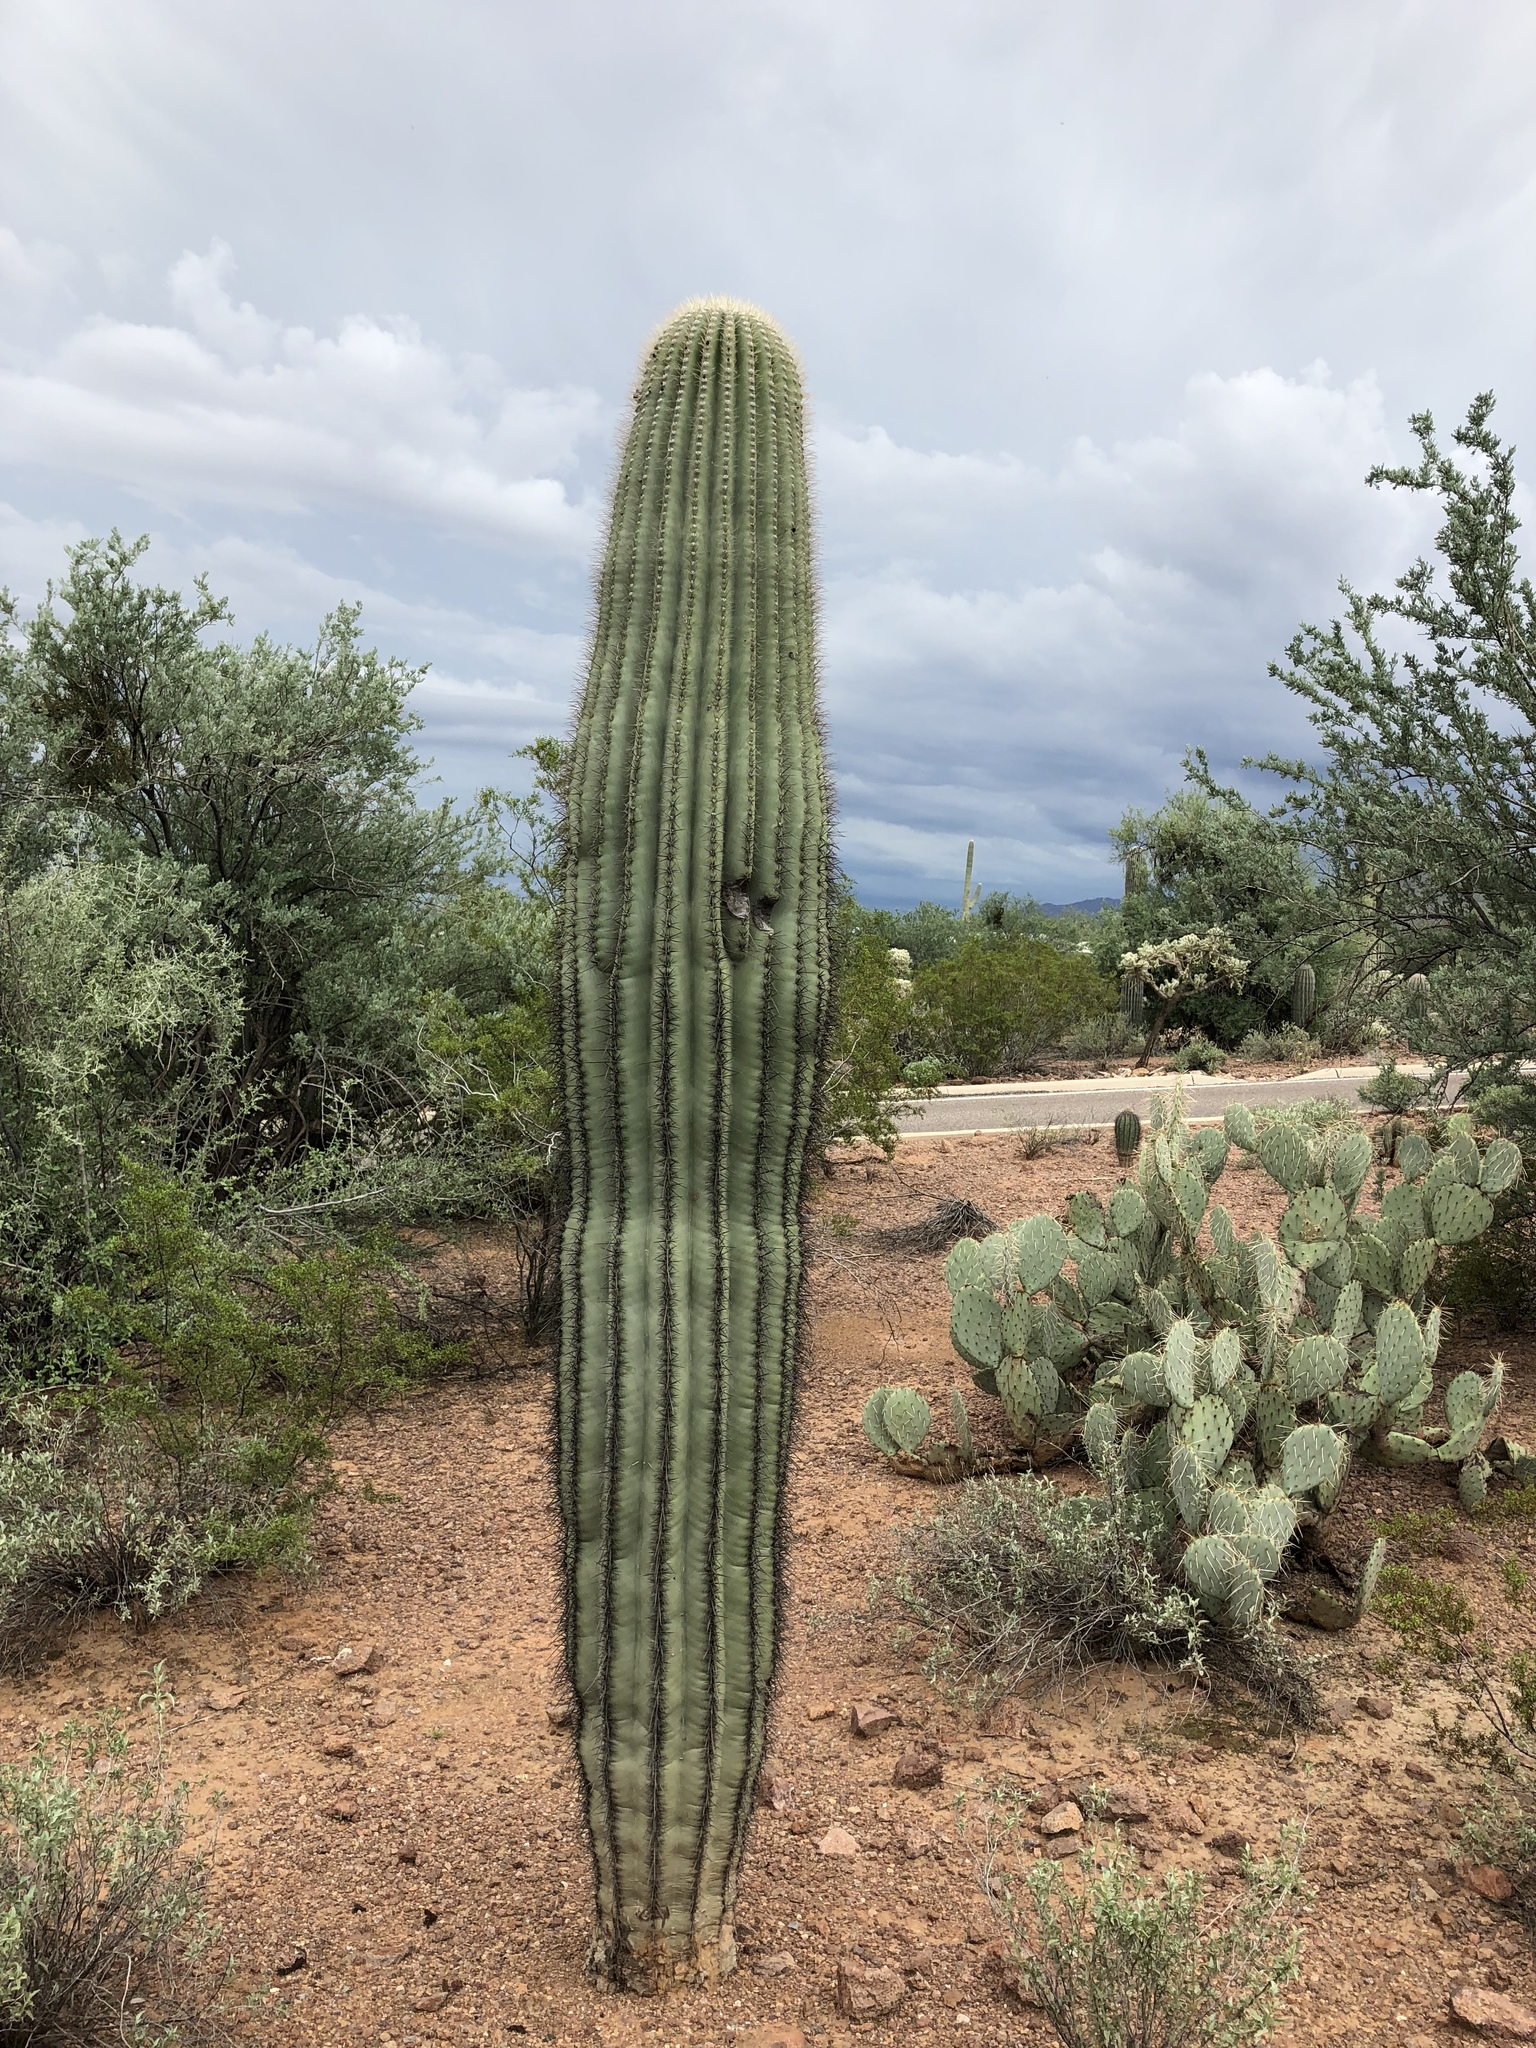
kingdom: Plantae
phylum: Tracheophyta
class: Magnoliopsida
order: Caryophyllales
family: Cactaceae
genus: Carnegiea
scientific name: Carnegiea gigantea
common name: Saguaro
